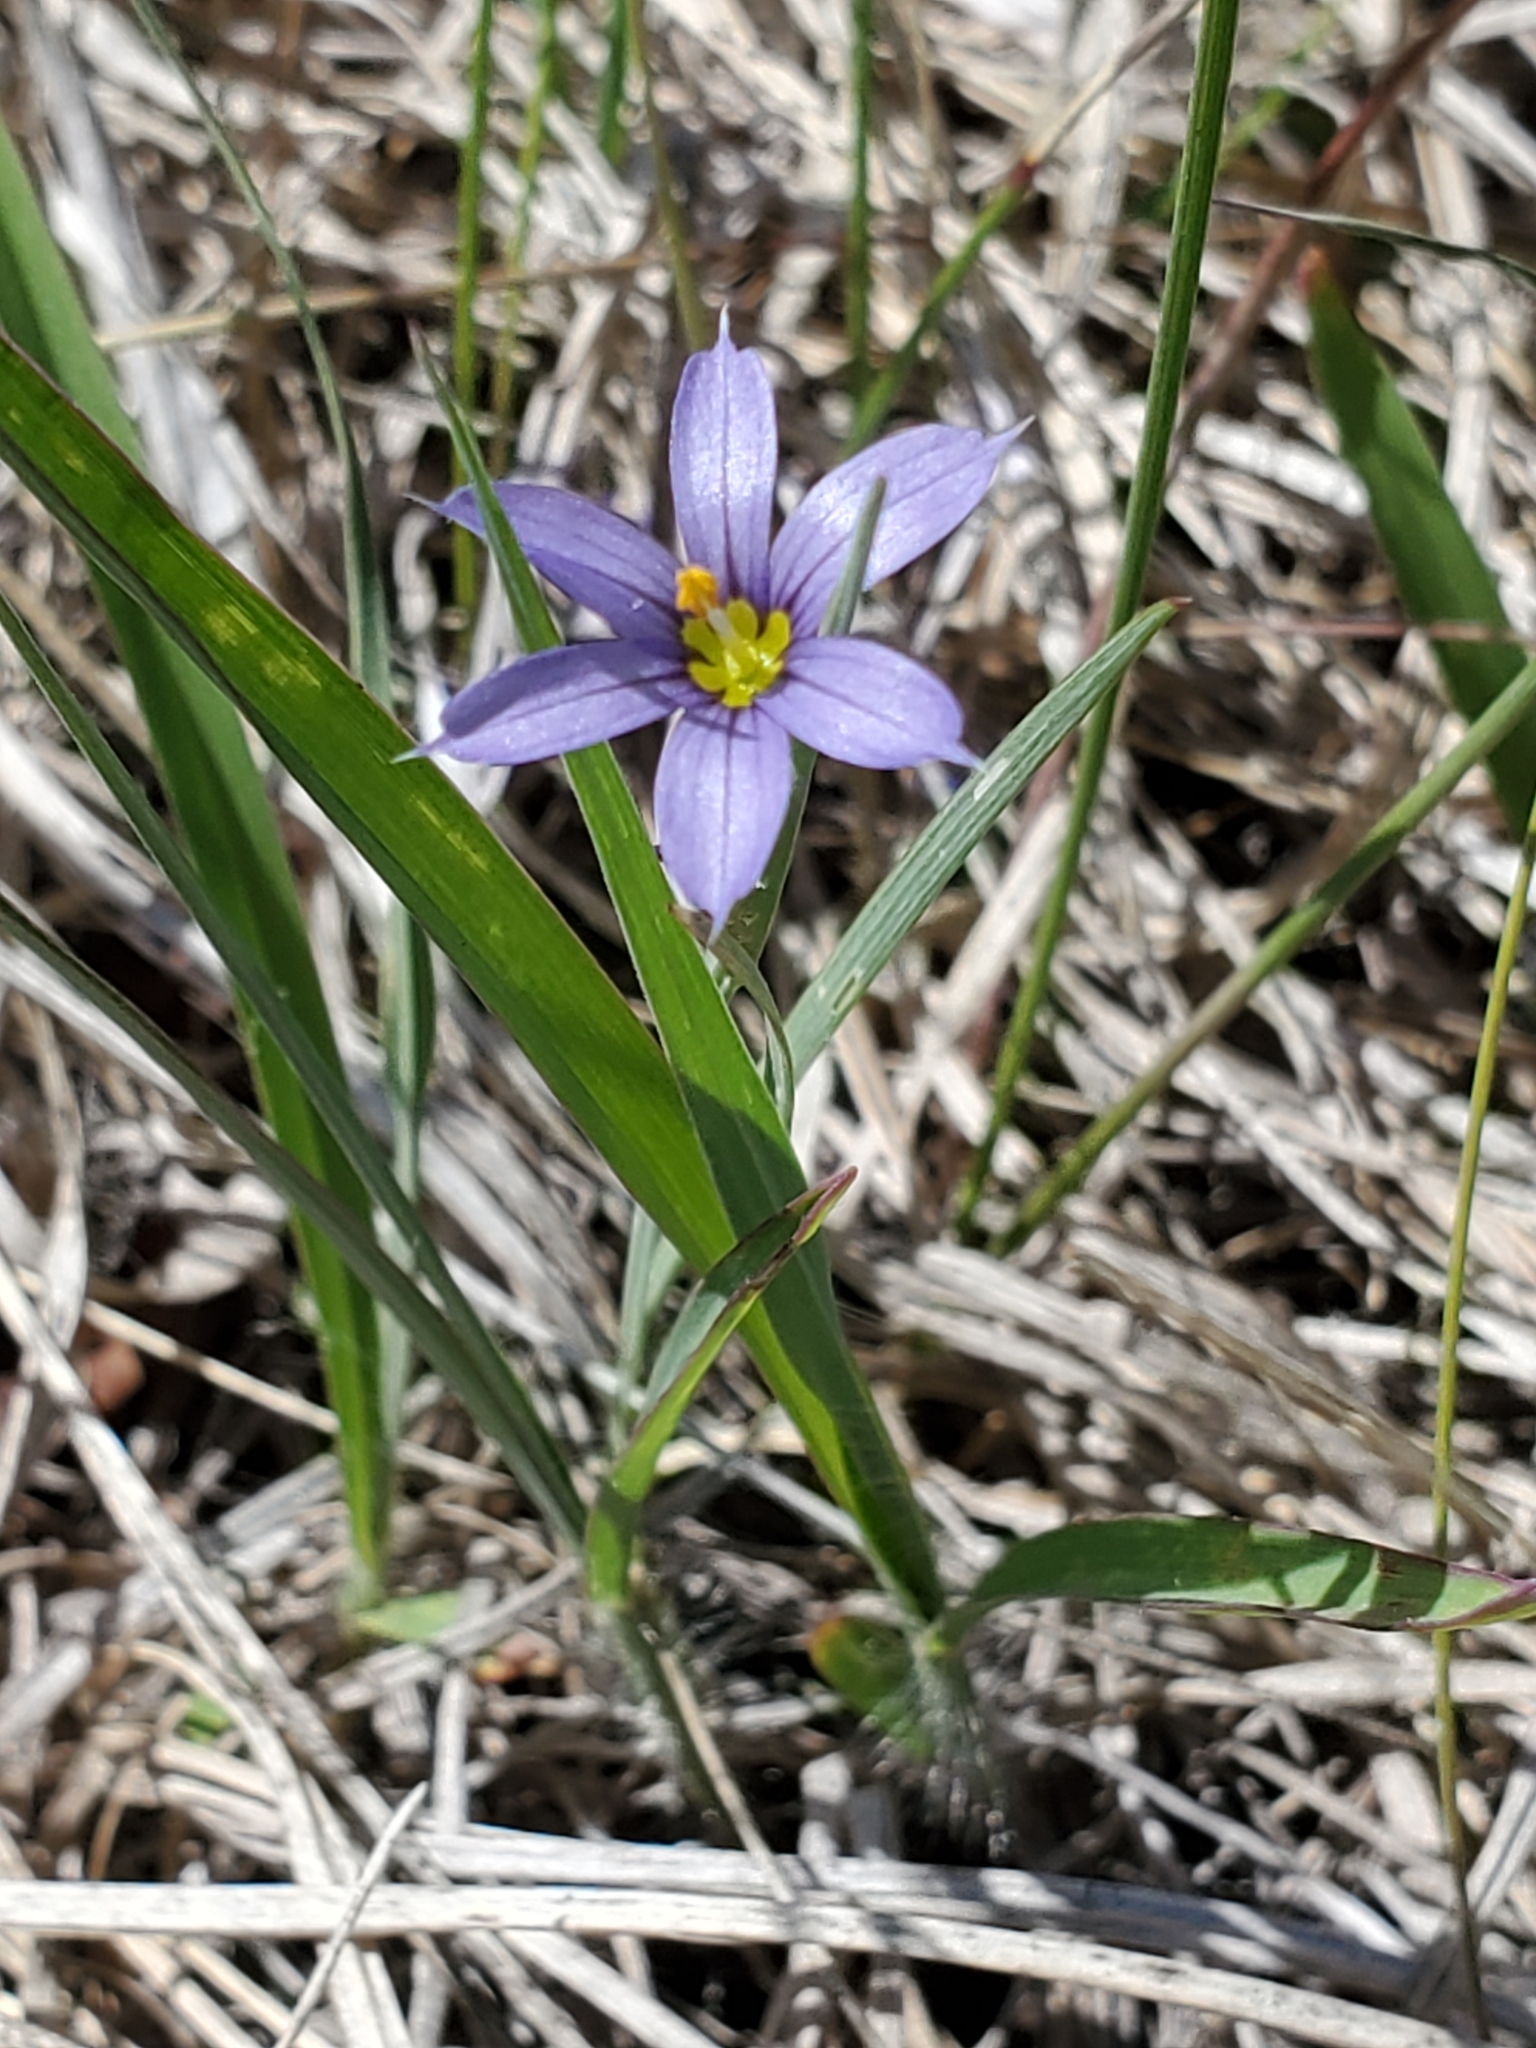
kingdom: Plantae
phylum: Tracheophyta
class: Liliopsida
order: Asparagales
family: Iridaceae
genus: Sisyrinchium
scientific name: Sisyrinchium montanum
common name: American blue-eyed-grass
